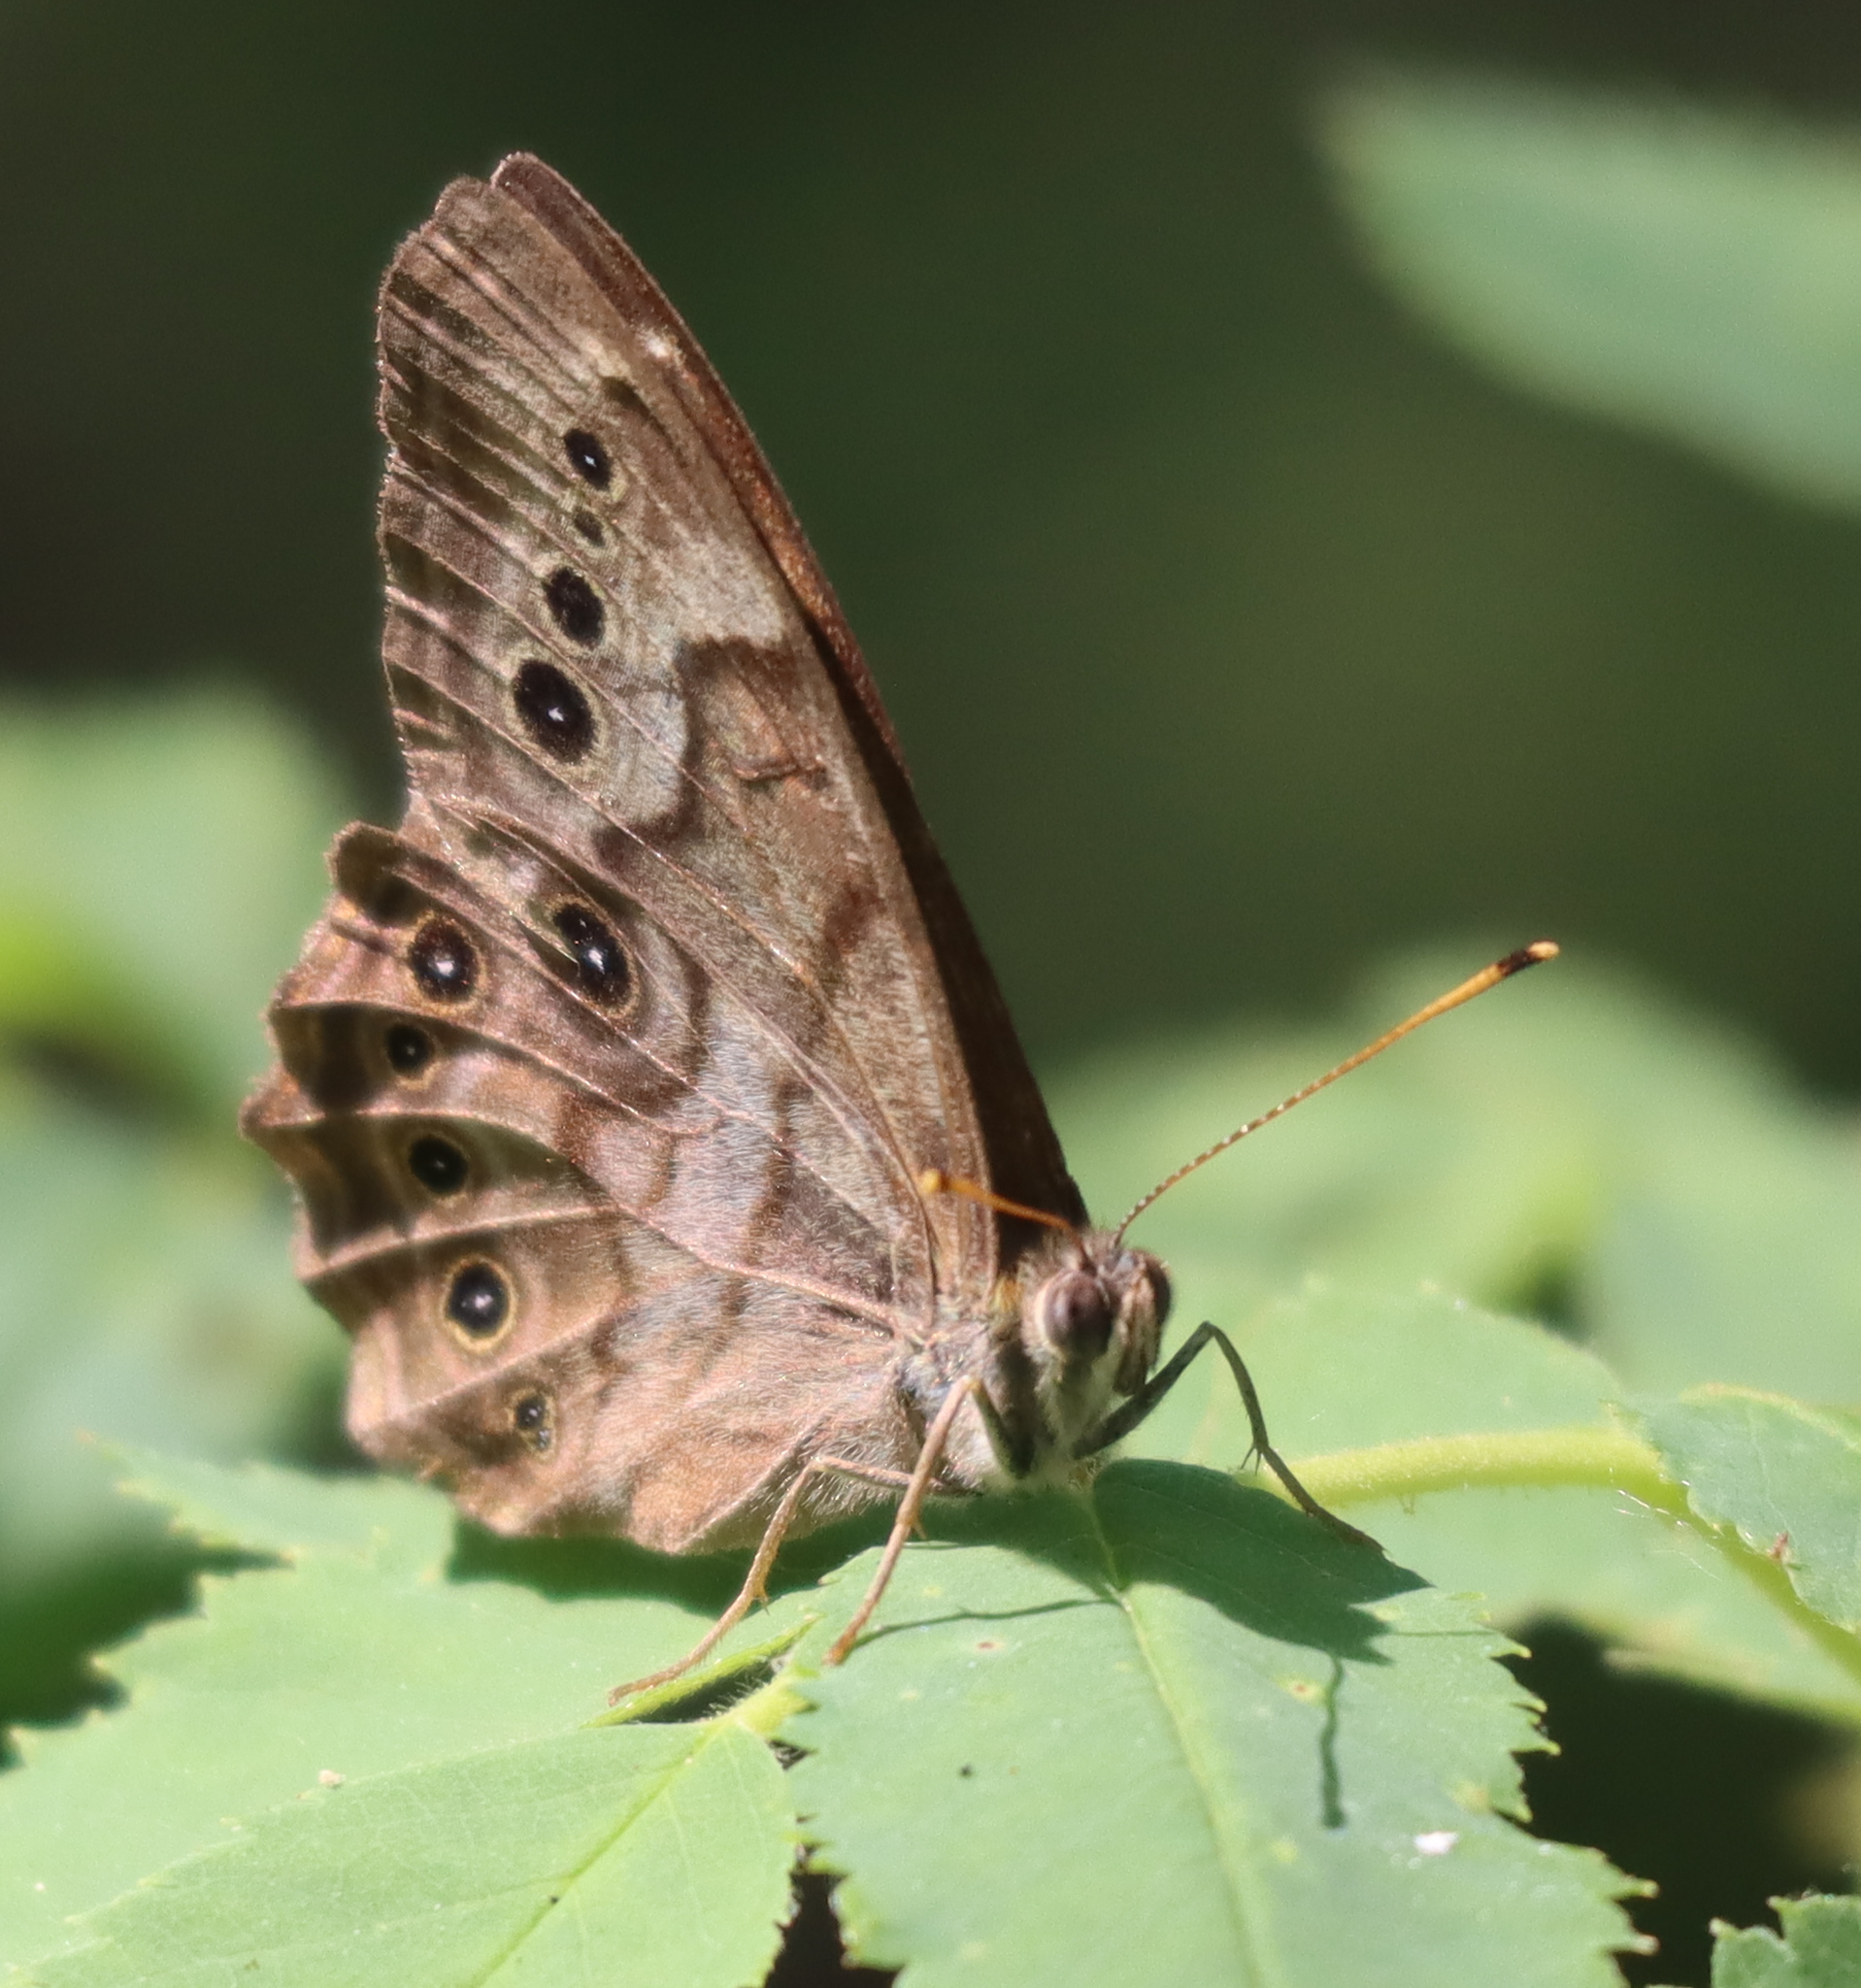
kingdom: Animalia
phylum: Arthropoda
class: Insecta
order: Lepidoptera
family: Nymphalidae
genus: Lethe
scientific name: Lethe anthedon
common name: Northern pearly-eye
